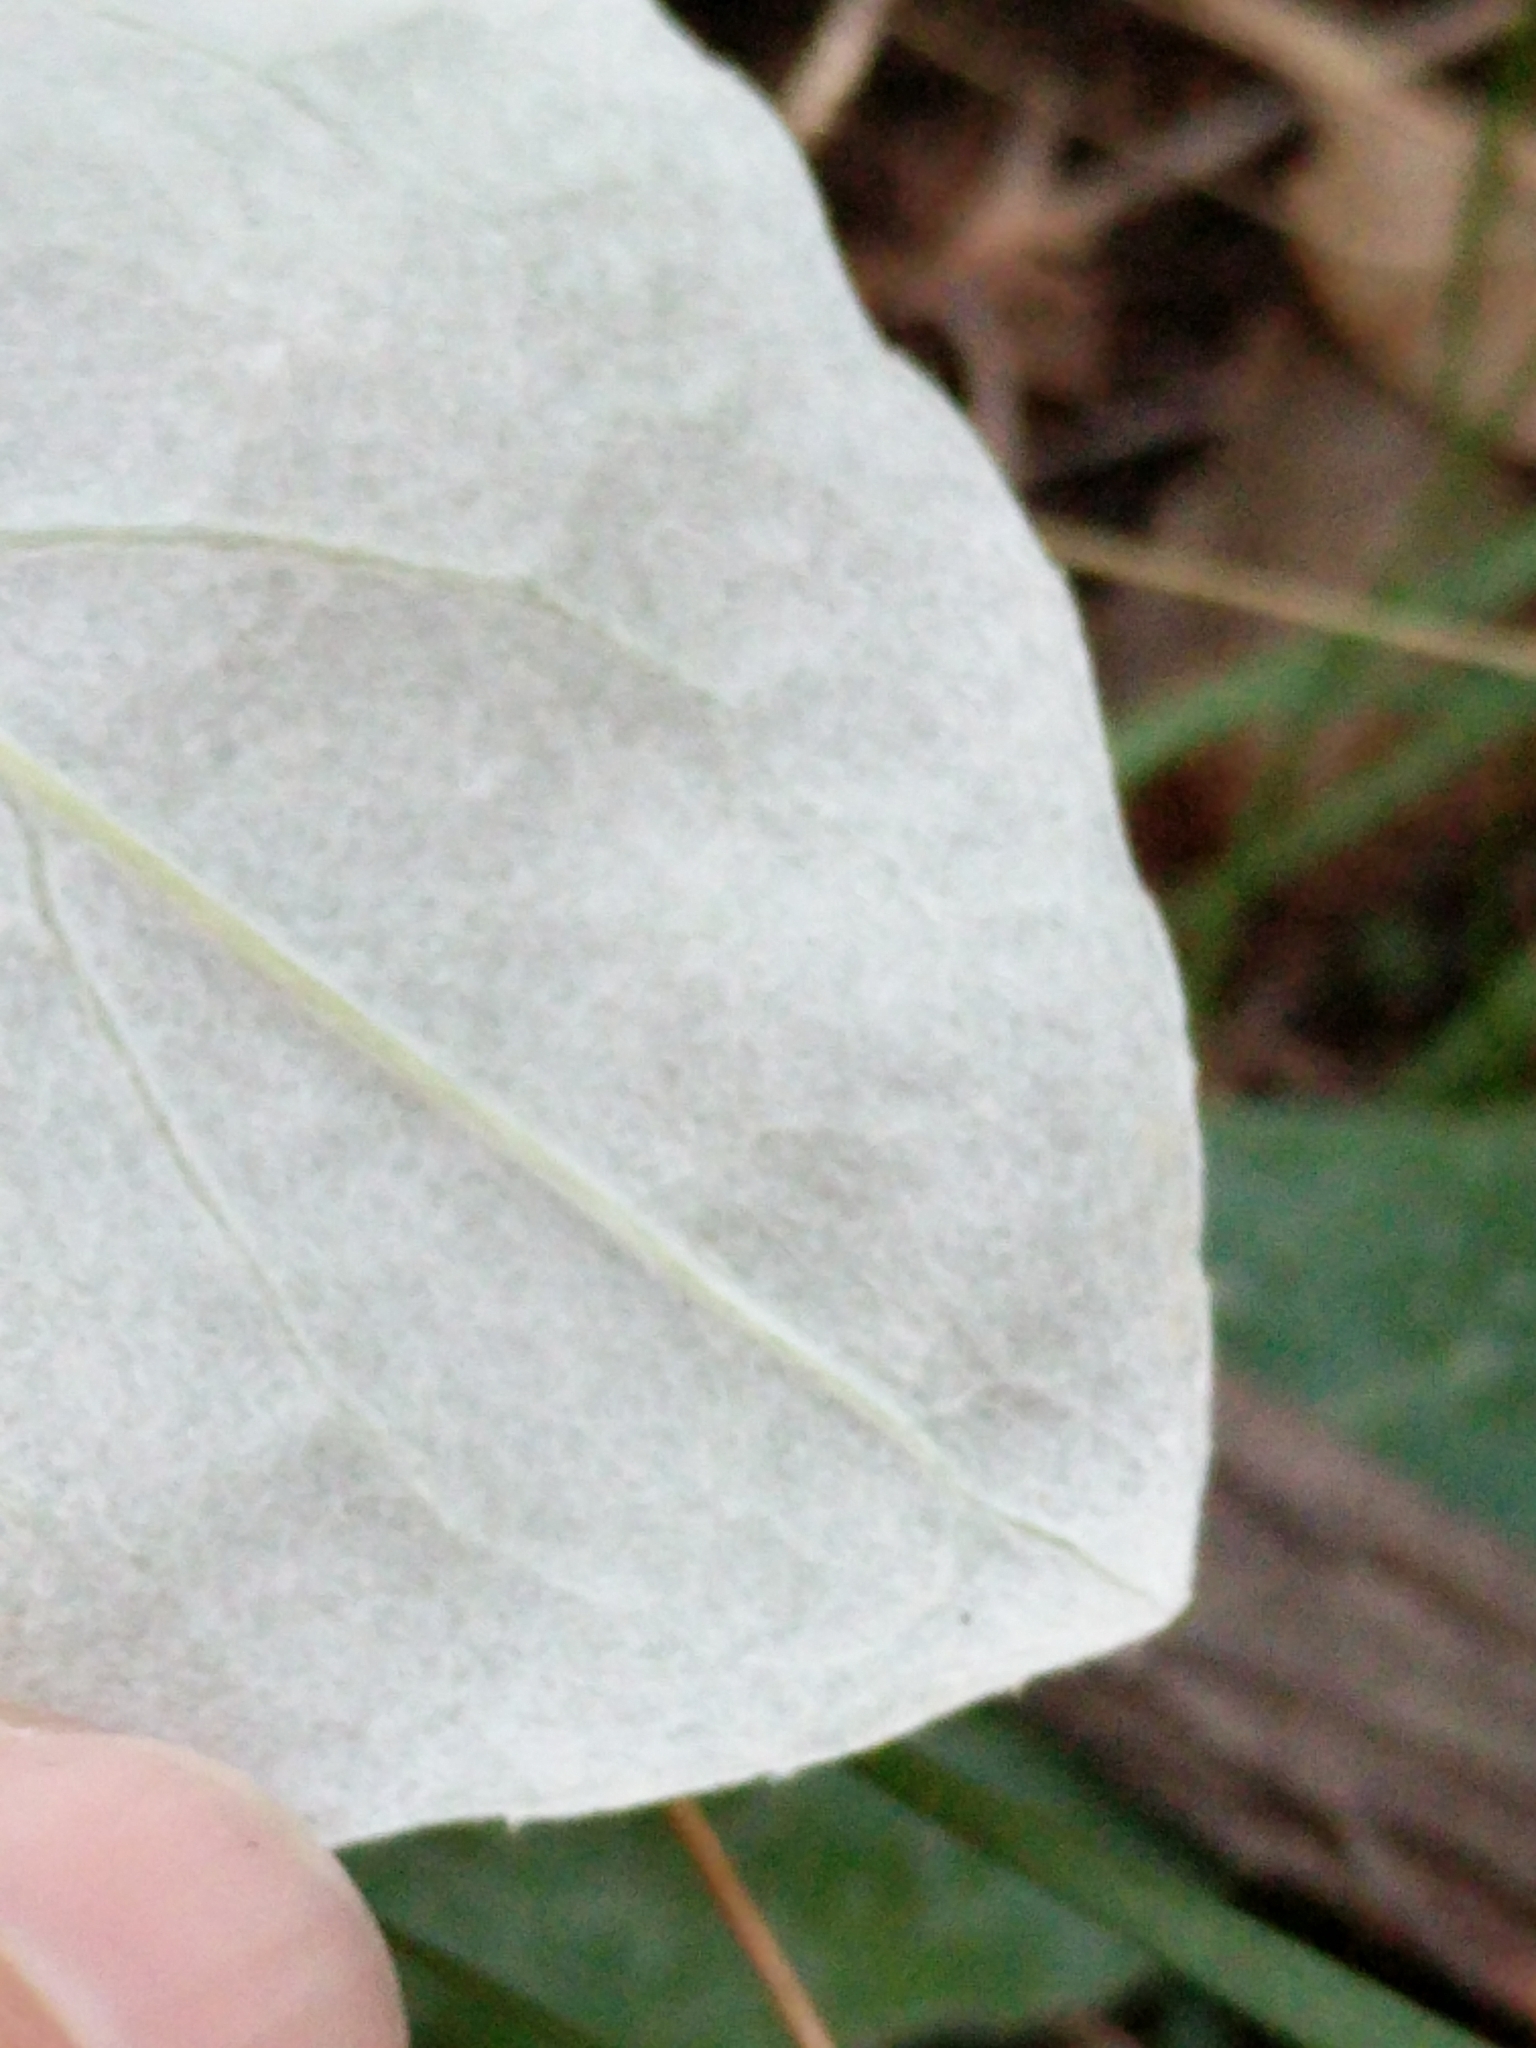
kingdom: Plantae
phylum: Tracheophyta
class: Magnoliopsida
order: Asterales
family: Asteraceae
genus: Chaptalia
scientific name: Chaptalia texana
